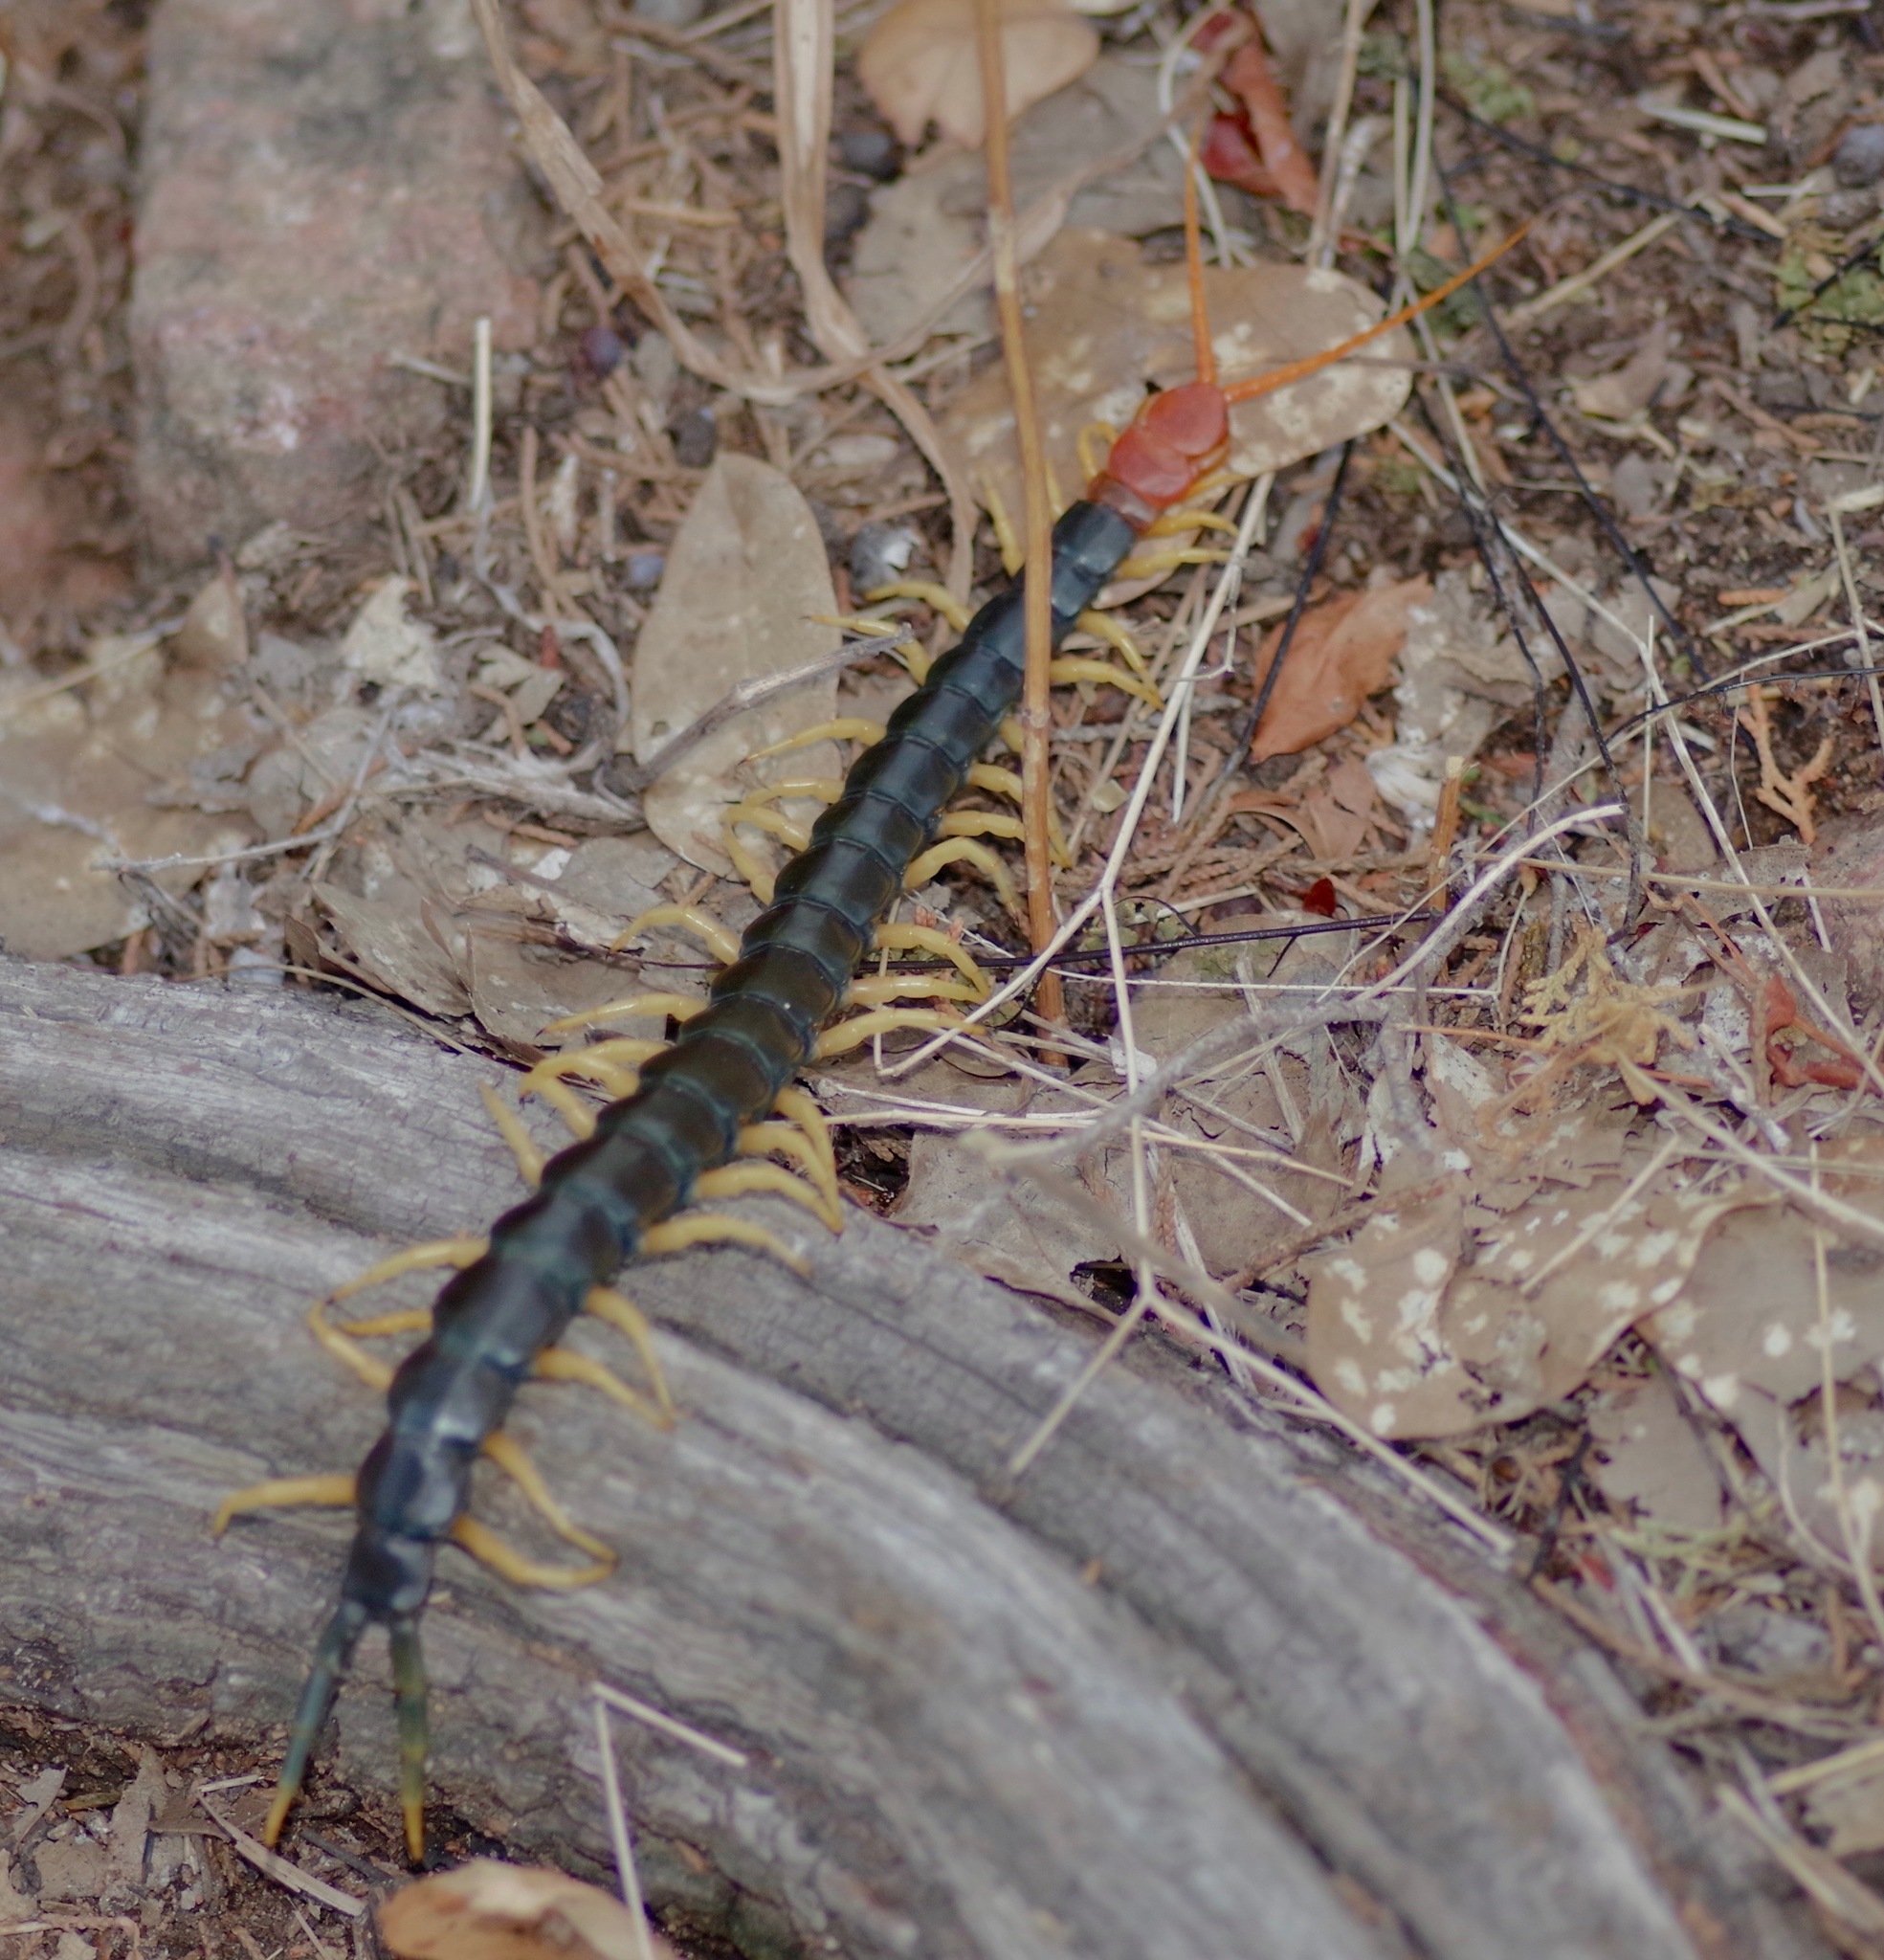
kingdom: Animalia
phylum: Arthropoda
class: Chilopoda
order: Scolopendromorpha
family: Scolopendridae
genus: Scolopendra
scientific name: Scolopendra heros
